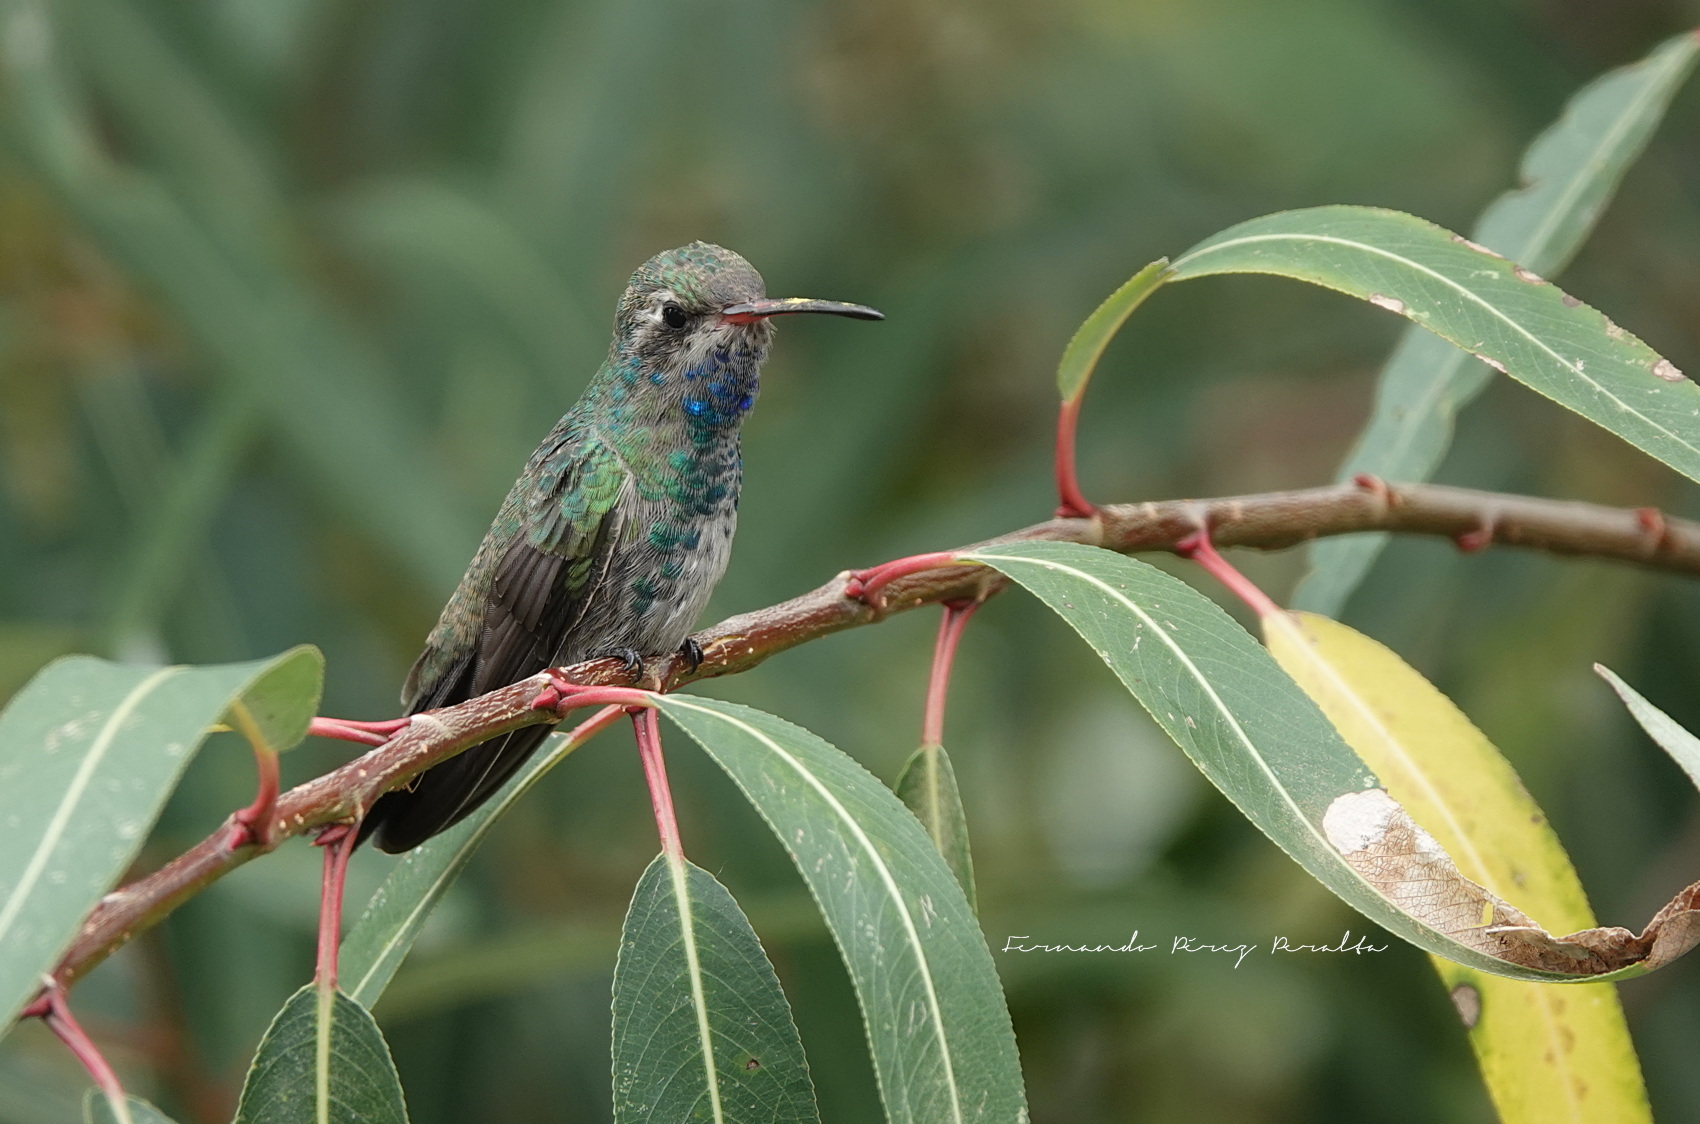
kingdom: Animalia
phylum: Chordata
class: Aves
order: Apodiformes
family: Trochilidae
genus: Cynanthus
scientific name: Cynanthus latirostris
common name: Broad-billed hummingbird
